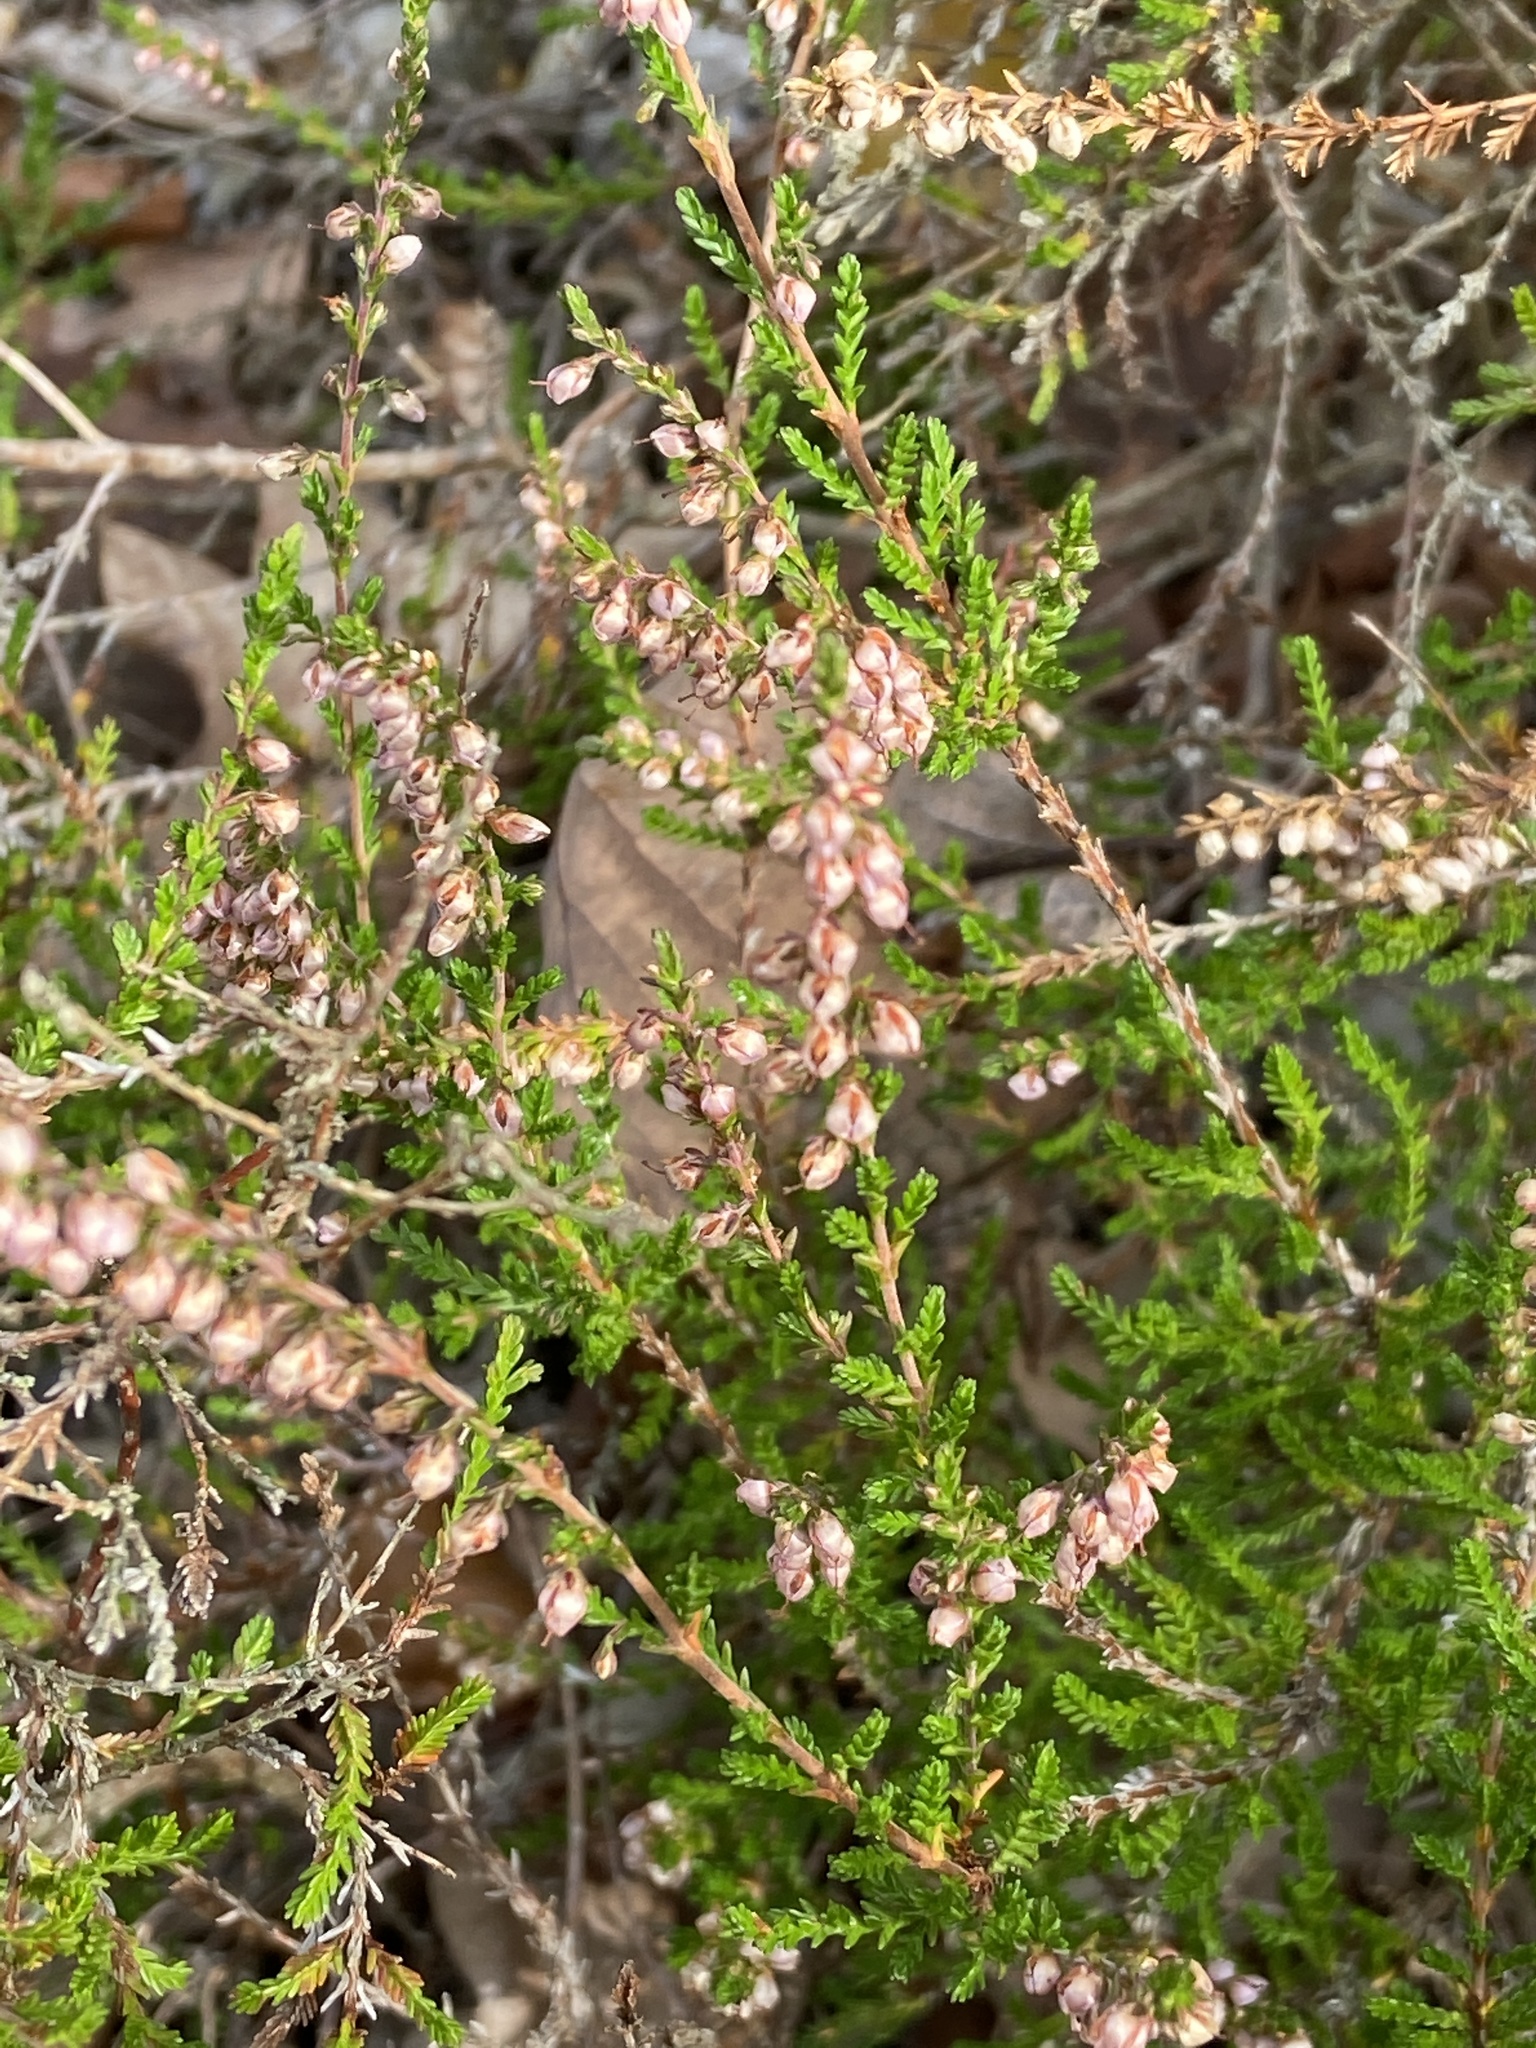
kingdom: Plantae
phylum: Tracheophyta
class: Magnoliopsida
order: Ericales
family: Ericaceae
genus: Calluna
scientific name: Calluna vulgaris
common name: Heather
